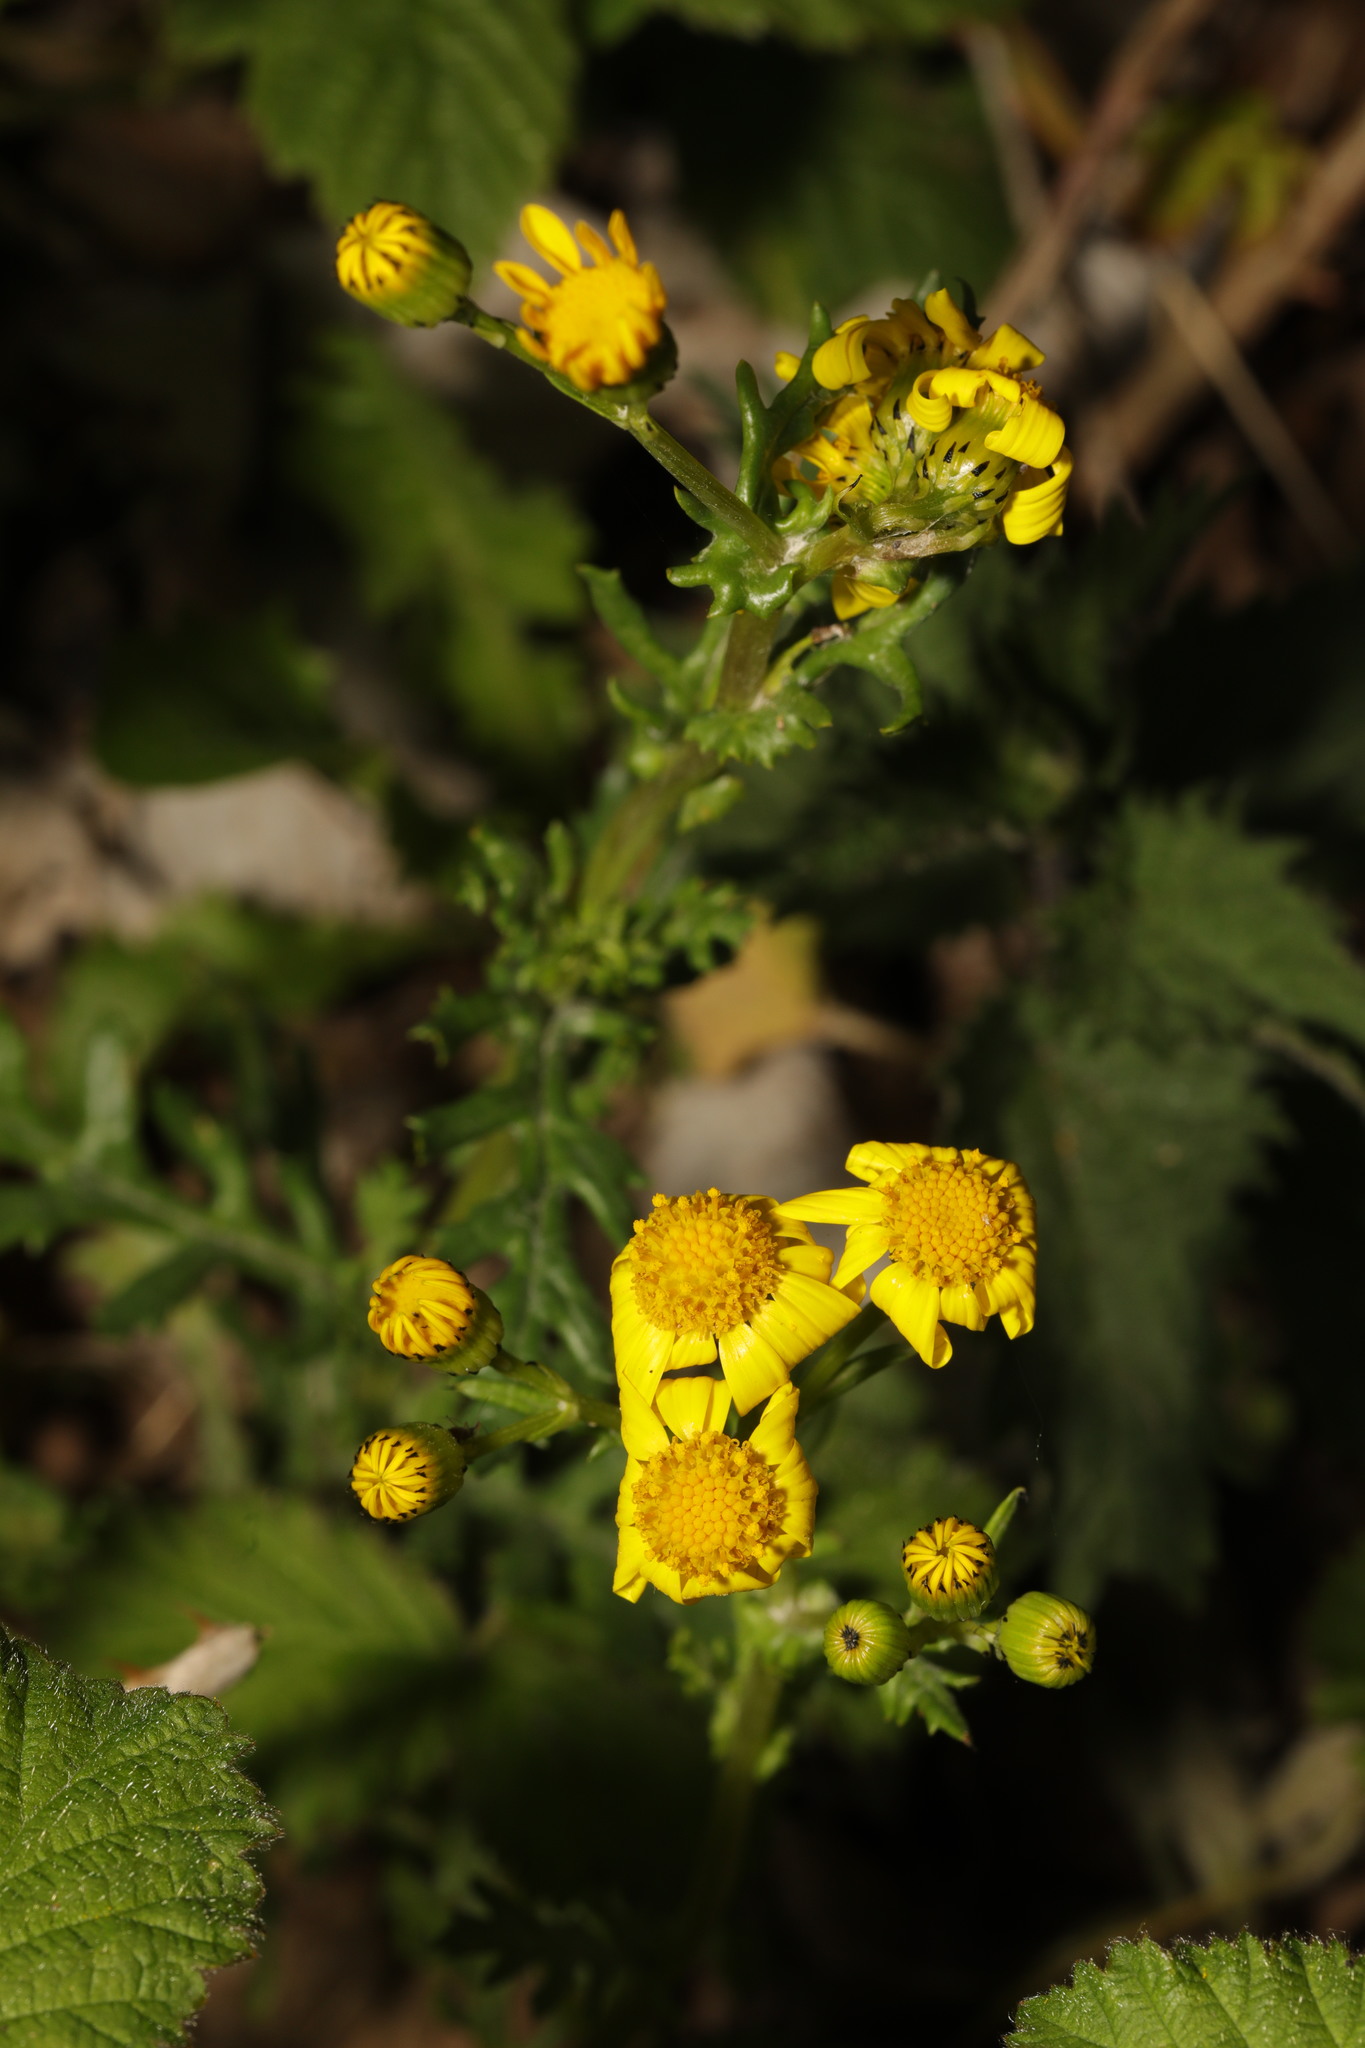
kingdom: Plantae
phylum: Tracheophyta
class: Magnoliopsida
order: Asterales
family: Asteraceae
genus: Senecio
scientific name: Senecio squalidus
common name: Oxford ragwort
